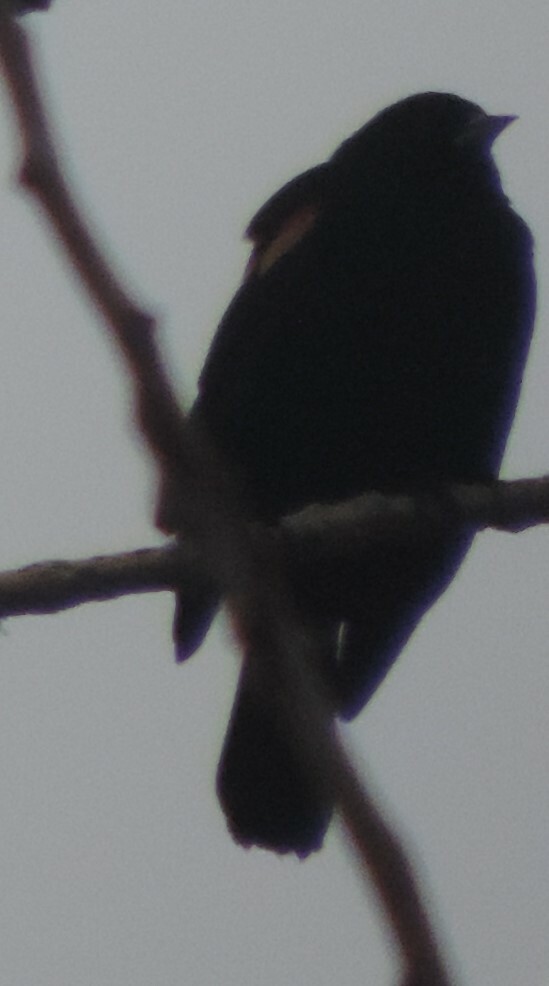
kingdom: Animalia
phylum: Chordata
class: Aves
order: Passeriformes
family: Icteridae
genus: Agelaius
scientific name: Agelaius phoeniceus
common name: Red-winged blackbird
